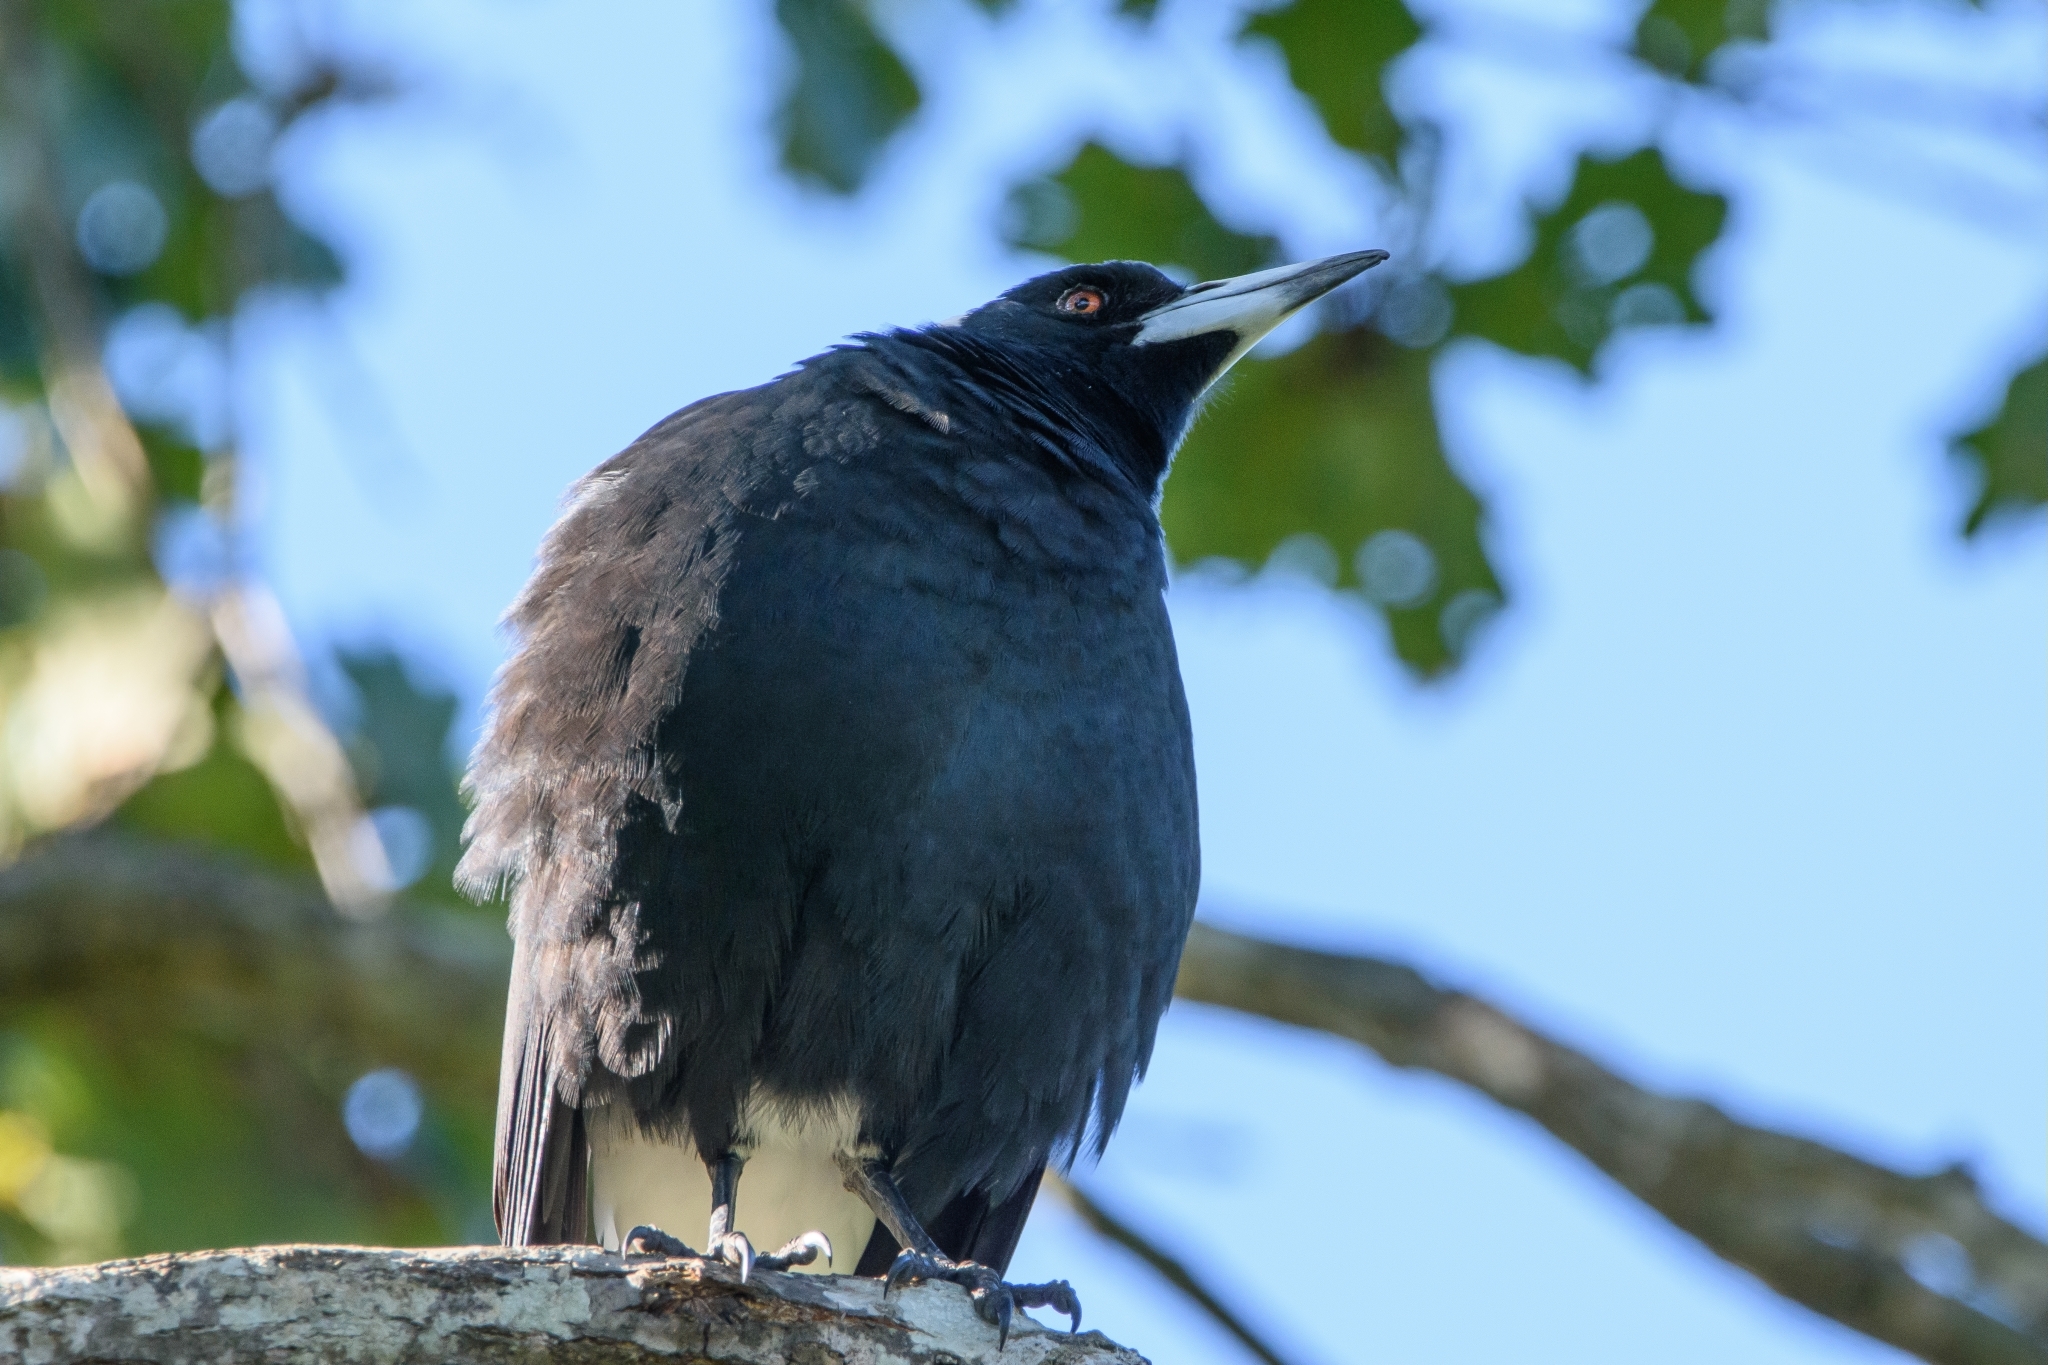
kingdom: Animalia
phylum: Chordata
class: Aves
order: Passeriformes
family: Cracticidae
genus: Gymnorhina
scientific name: Gymnorhina tibicen
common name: Australian magpie
